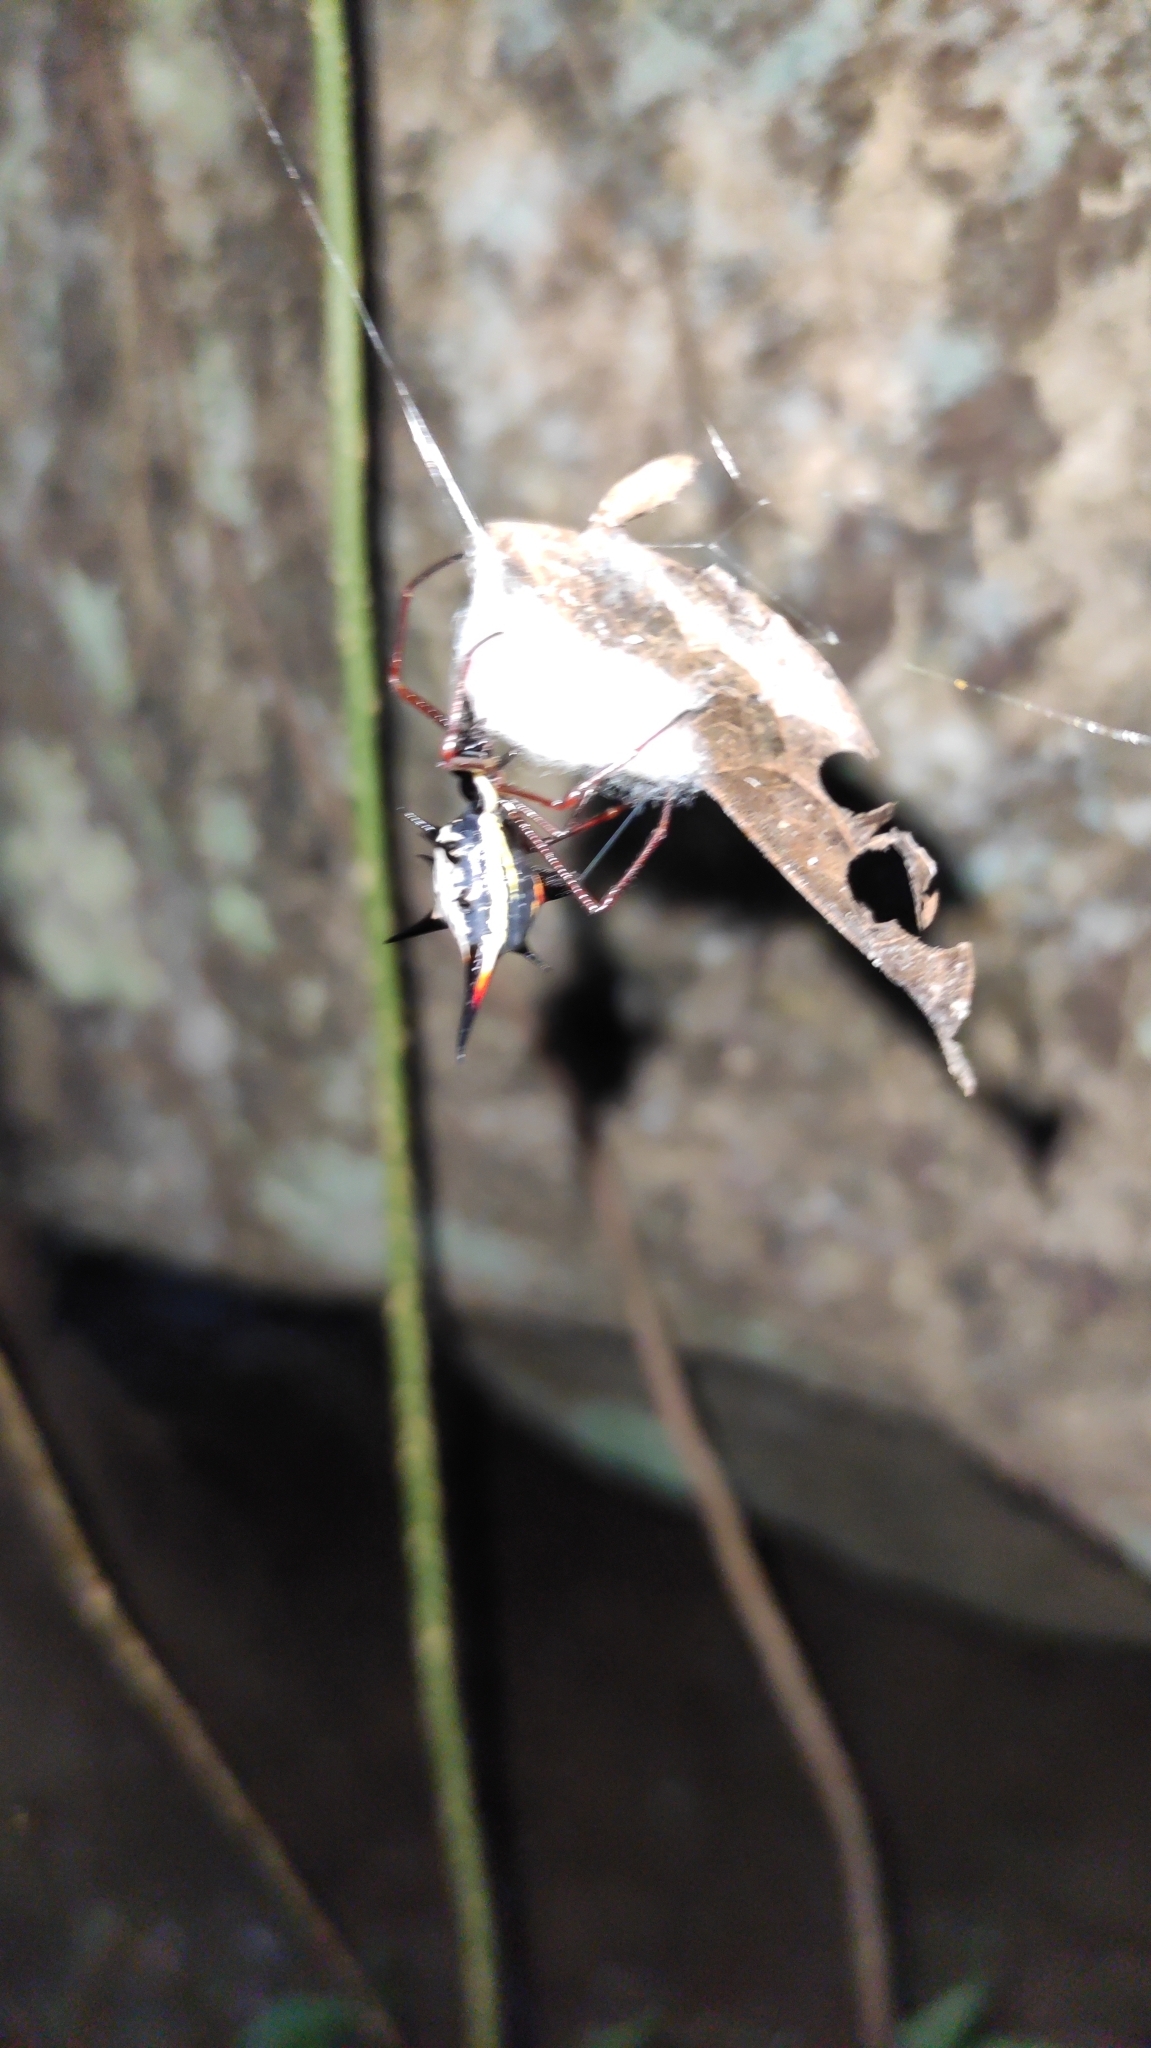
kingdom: Animalia
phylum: Arthropoda
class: Arachnida
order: Araneae
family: Araneidae
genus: Micrathena
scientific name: Micrathena schreibersi
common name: Orb weavers
